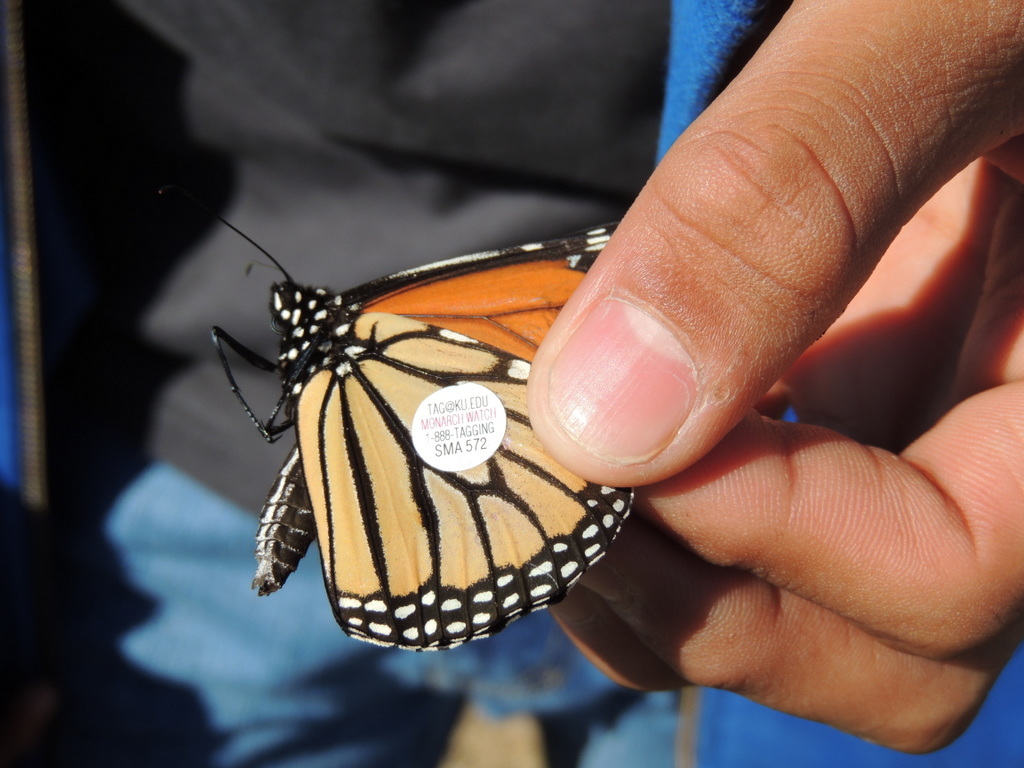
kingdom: Animalia
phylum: Arthropoda
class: Insecta
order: Lepidoptera
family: Nymphalidae
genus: Danaus
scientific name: Danaus plexippus
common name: Monarch
